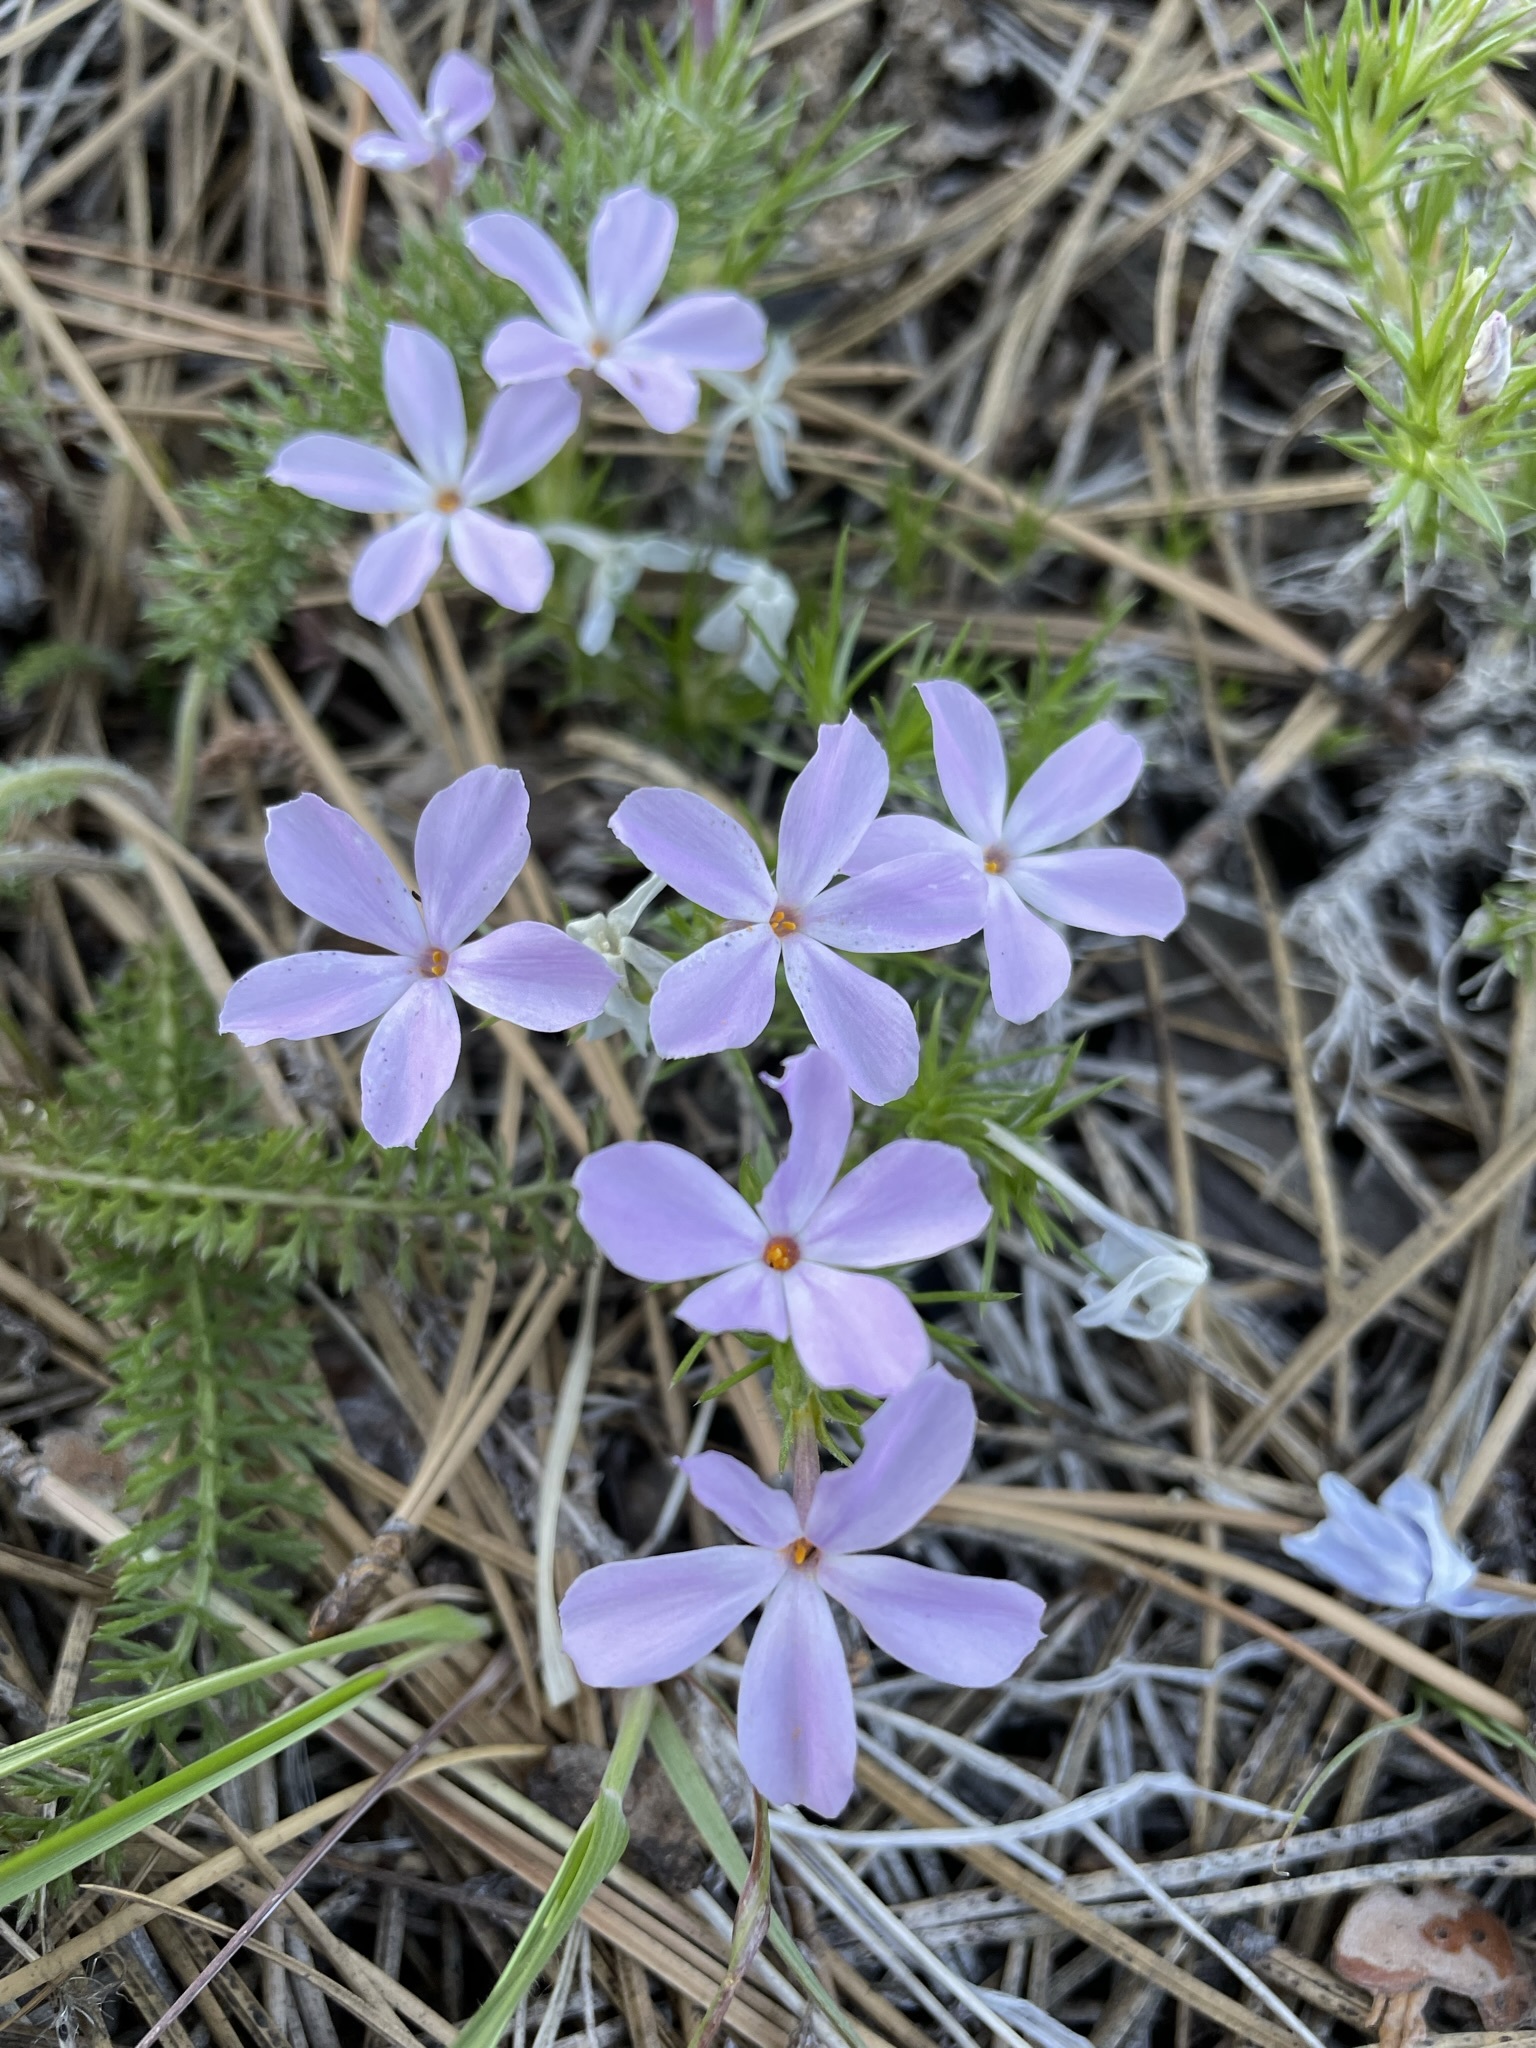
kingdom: Plantae
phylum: Tracheophyta
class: Magnoliopsida
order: Ericales
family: Polemoniaceae
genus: Phlox
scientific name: Phlox diffusa
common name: Mat phlox
